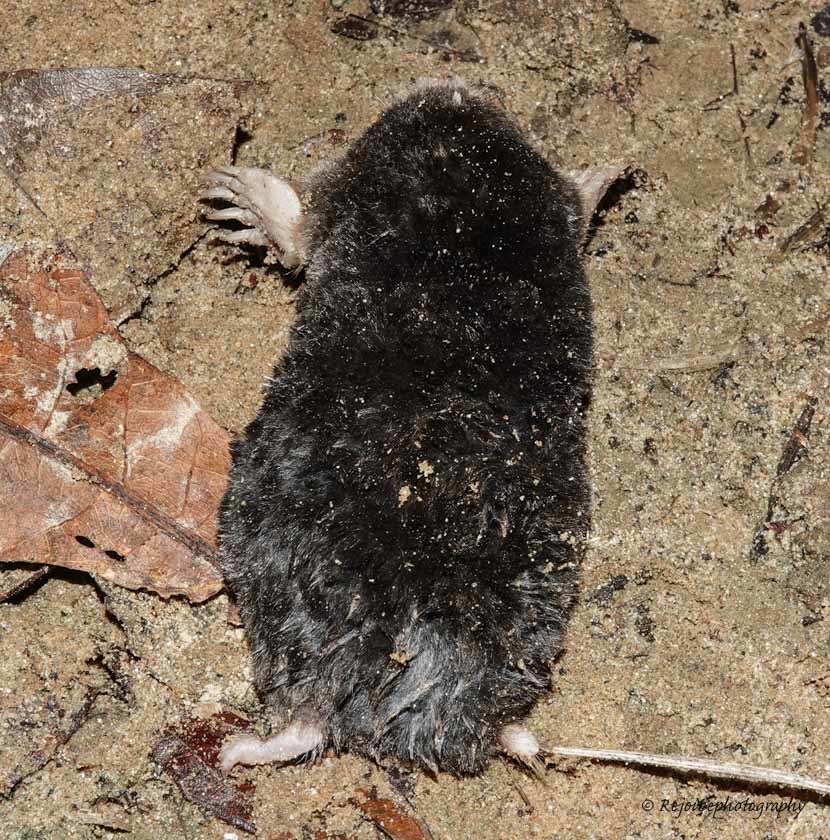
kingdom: Animalia
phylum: Chordata
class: Mammalia
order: Soricomorpha
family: Talpidae
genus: Parascaptor
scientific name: Parascaptor leucura
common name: White-tailed mole
